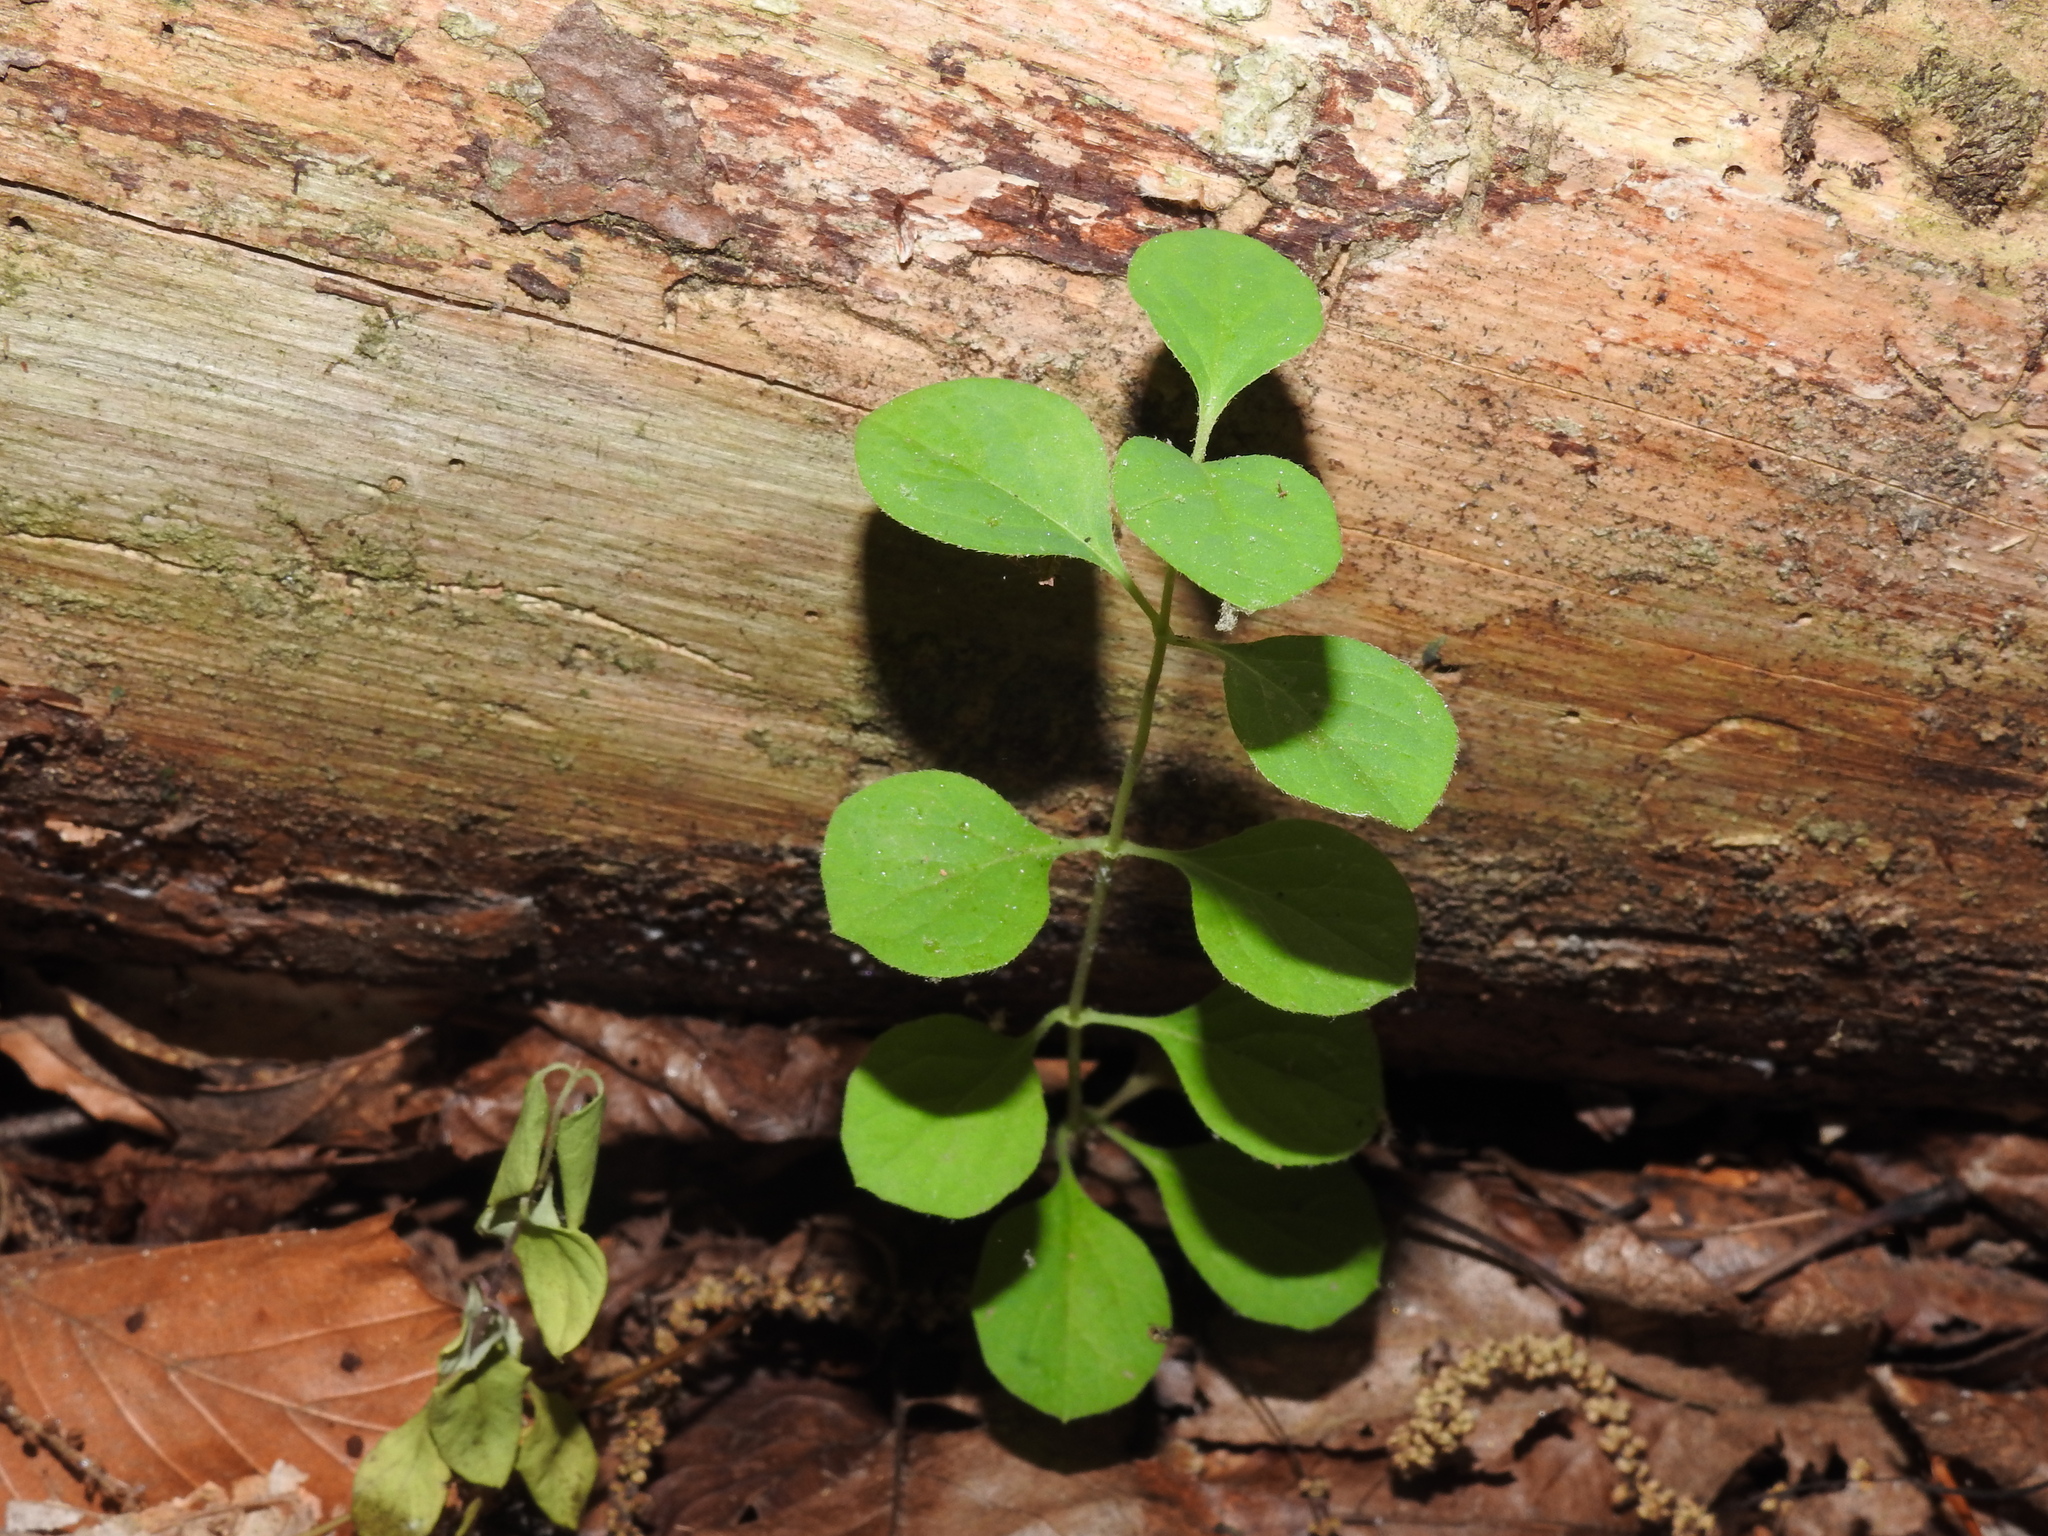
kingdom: Plantae
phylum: Tracheophyta
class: Magnoliopsida
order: Celastrales
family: Celastraceae
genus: Celastrus
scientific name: Celastrus orbiculatus
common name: Oriental bittersweet
